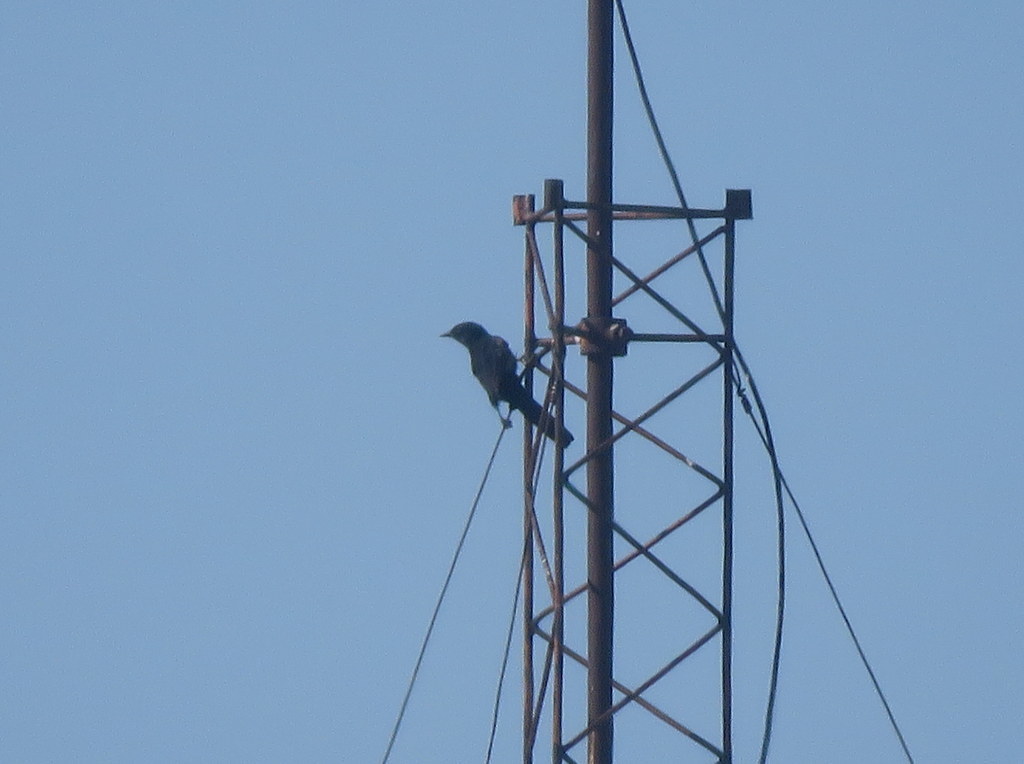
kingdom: Animalia
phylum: Chordata
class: Aves
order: Passeriformes
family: Icteridae
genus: Icterus
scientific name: Icterus cayanensis
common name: Epaulet oriole
